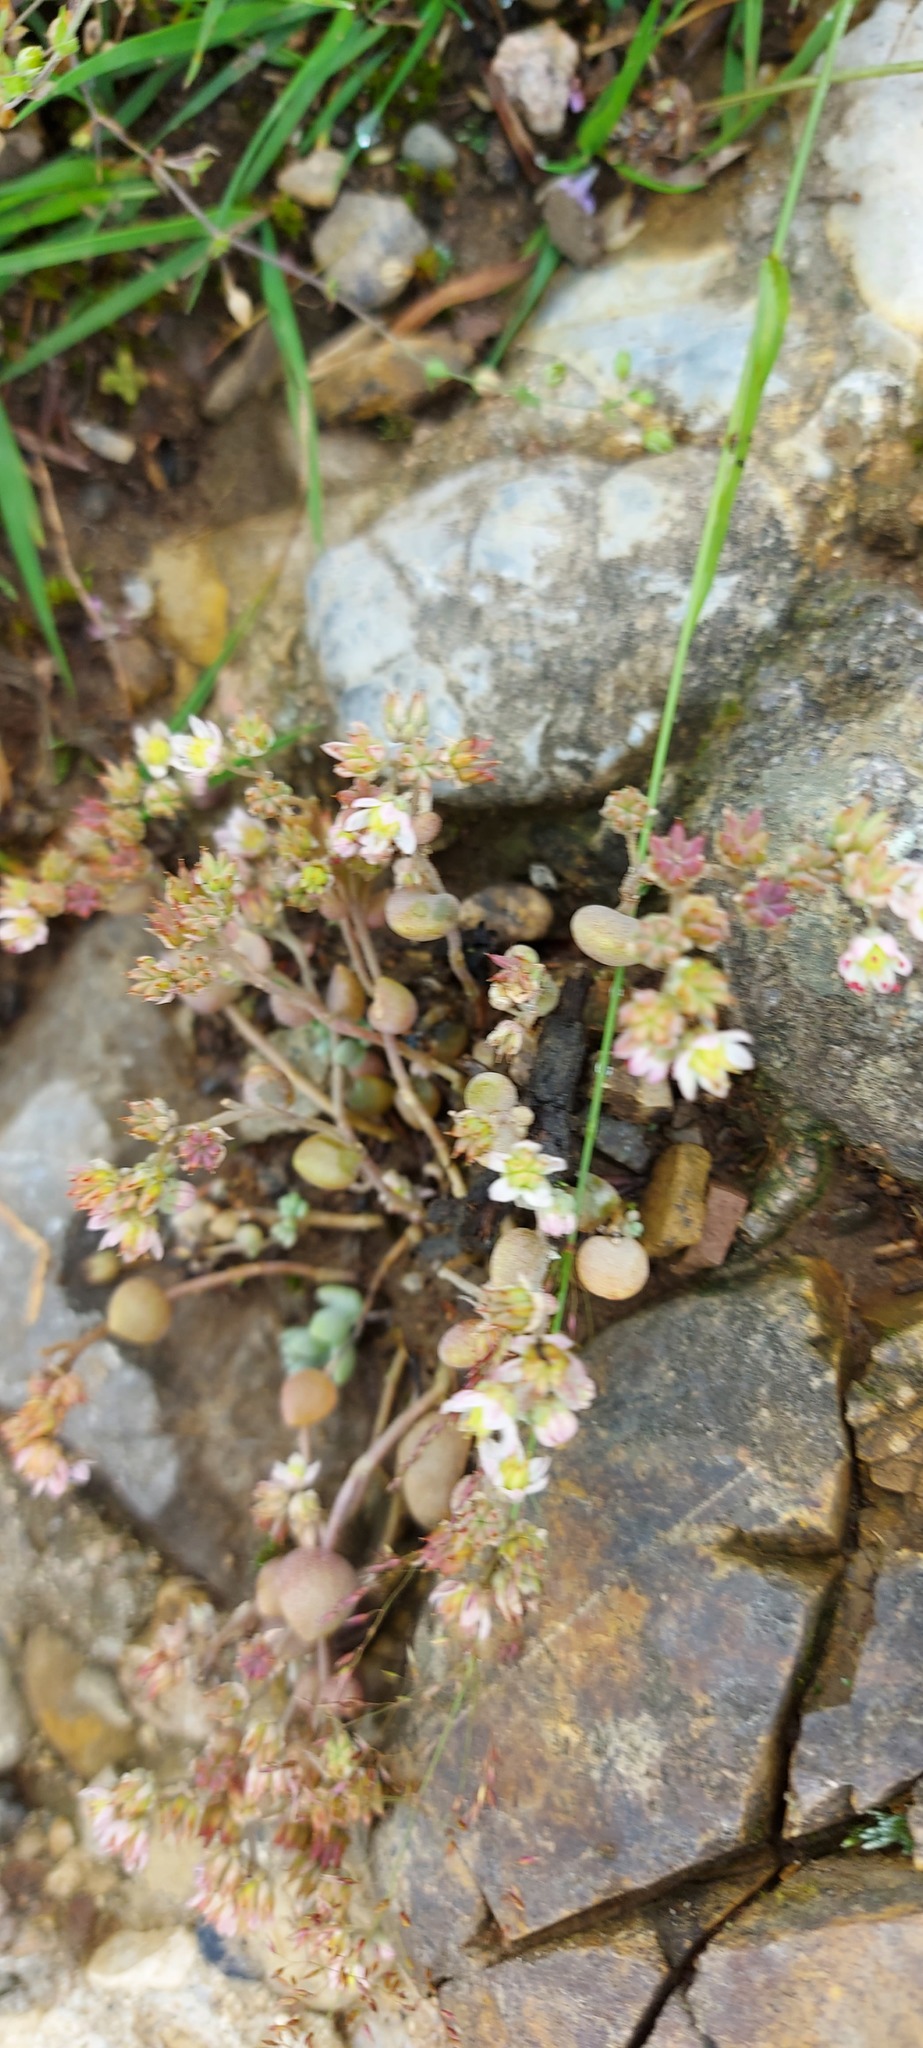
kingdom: Plantae
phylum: Tracheophyta
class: Magnoliopsida
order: Saxifragales
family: Crassulaceae
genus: Sedum
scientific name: Sedum dasyphyllum
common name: Thick-leaf stonecrop
